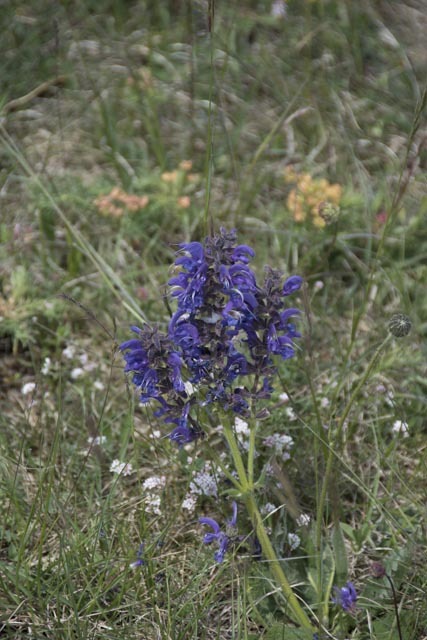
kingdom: Plantae
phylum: Tracheophyta
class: Magnoliopsida
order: Lamiales
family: Lamiaceae
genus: Salvia
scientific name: Salvia pratensis
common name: Meadow sage
